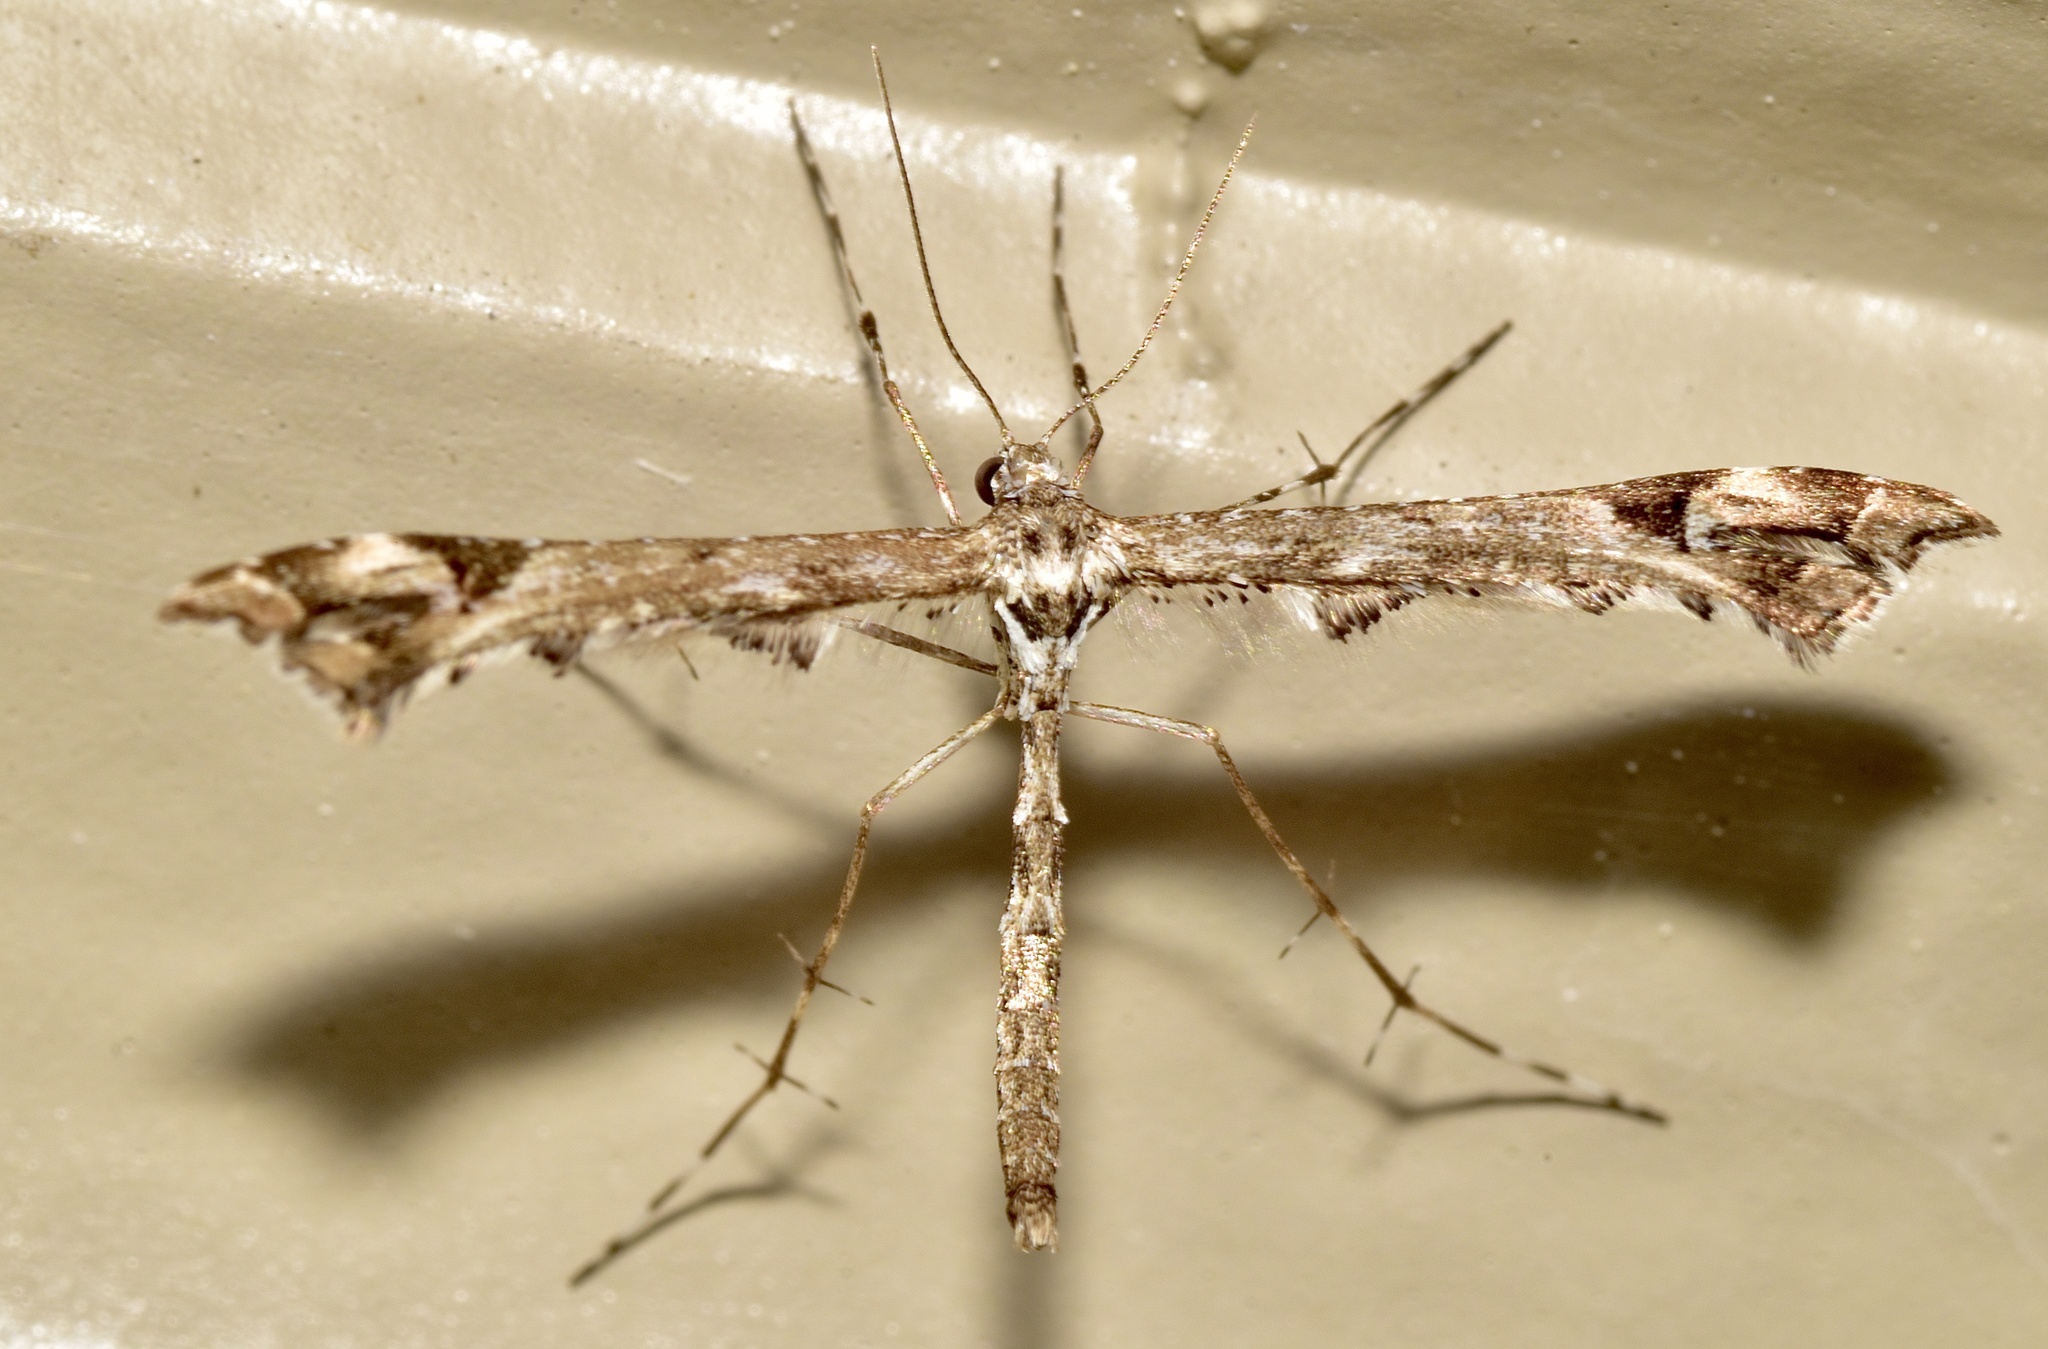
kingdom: Animalia
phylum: Arthropoda
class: Insecta
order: Lepidoptera
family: Pterophoridae
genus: Amblyptilia
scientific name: Amblyptilia pica
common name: Geranium plume moth
